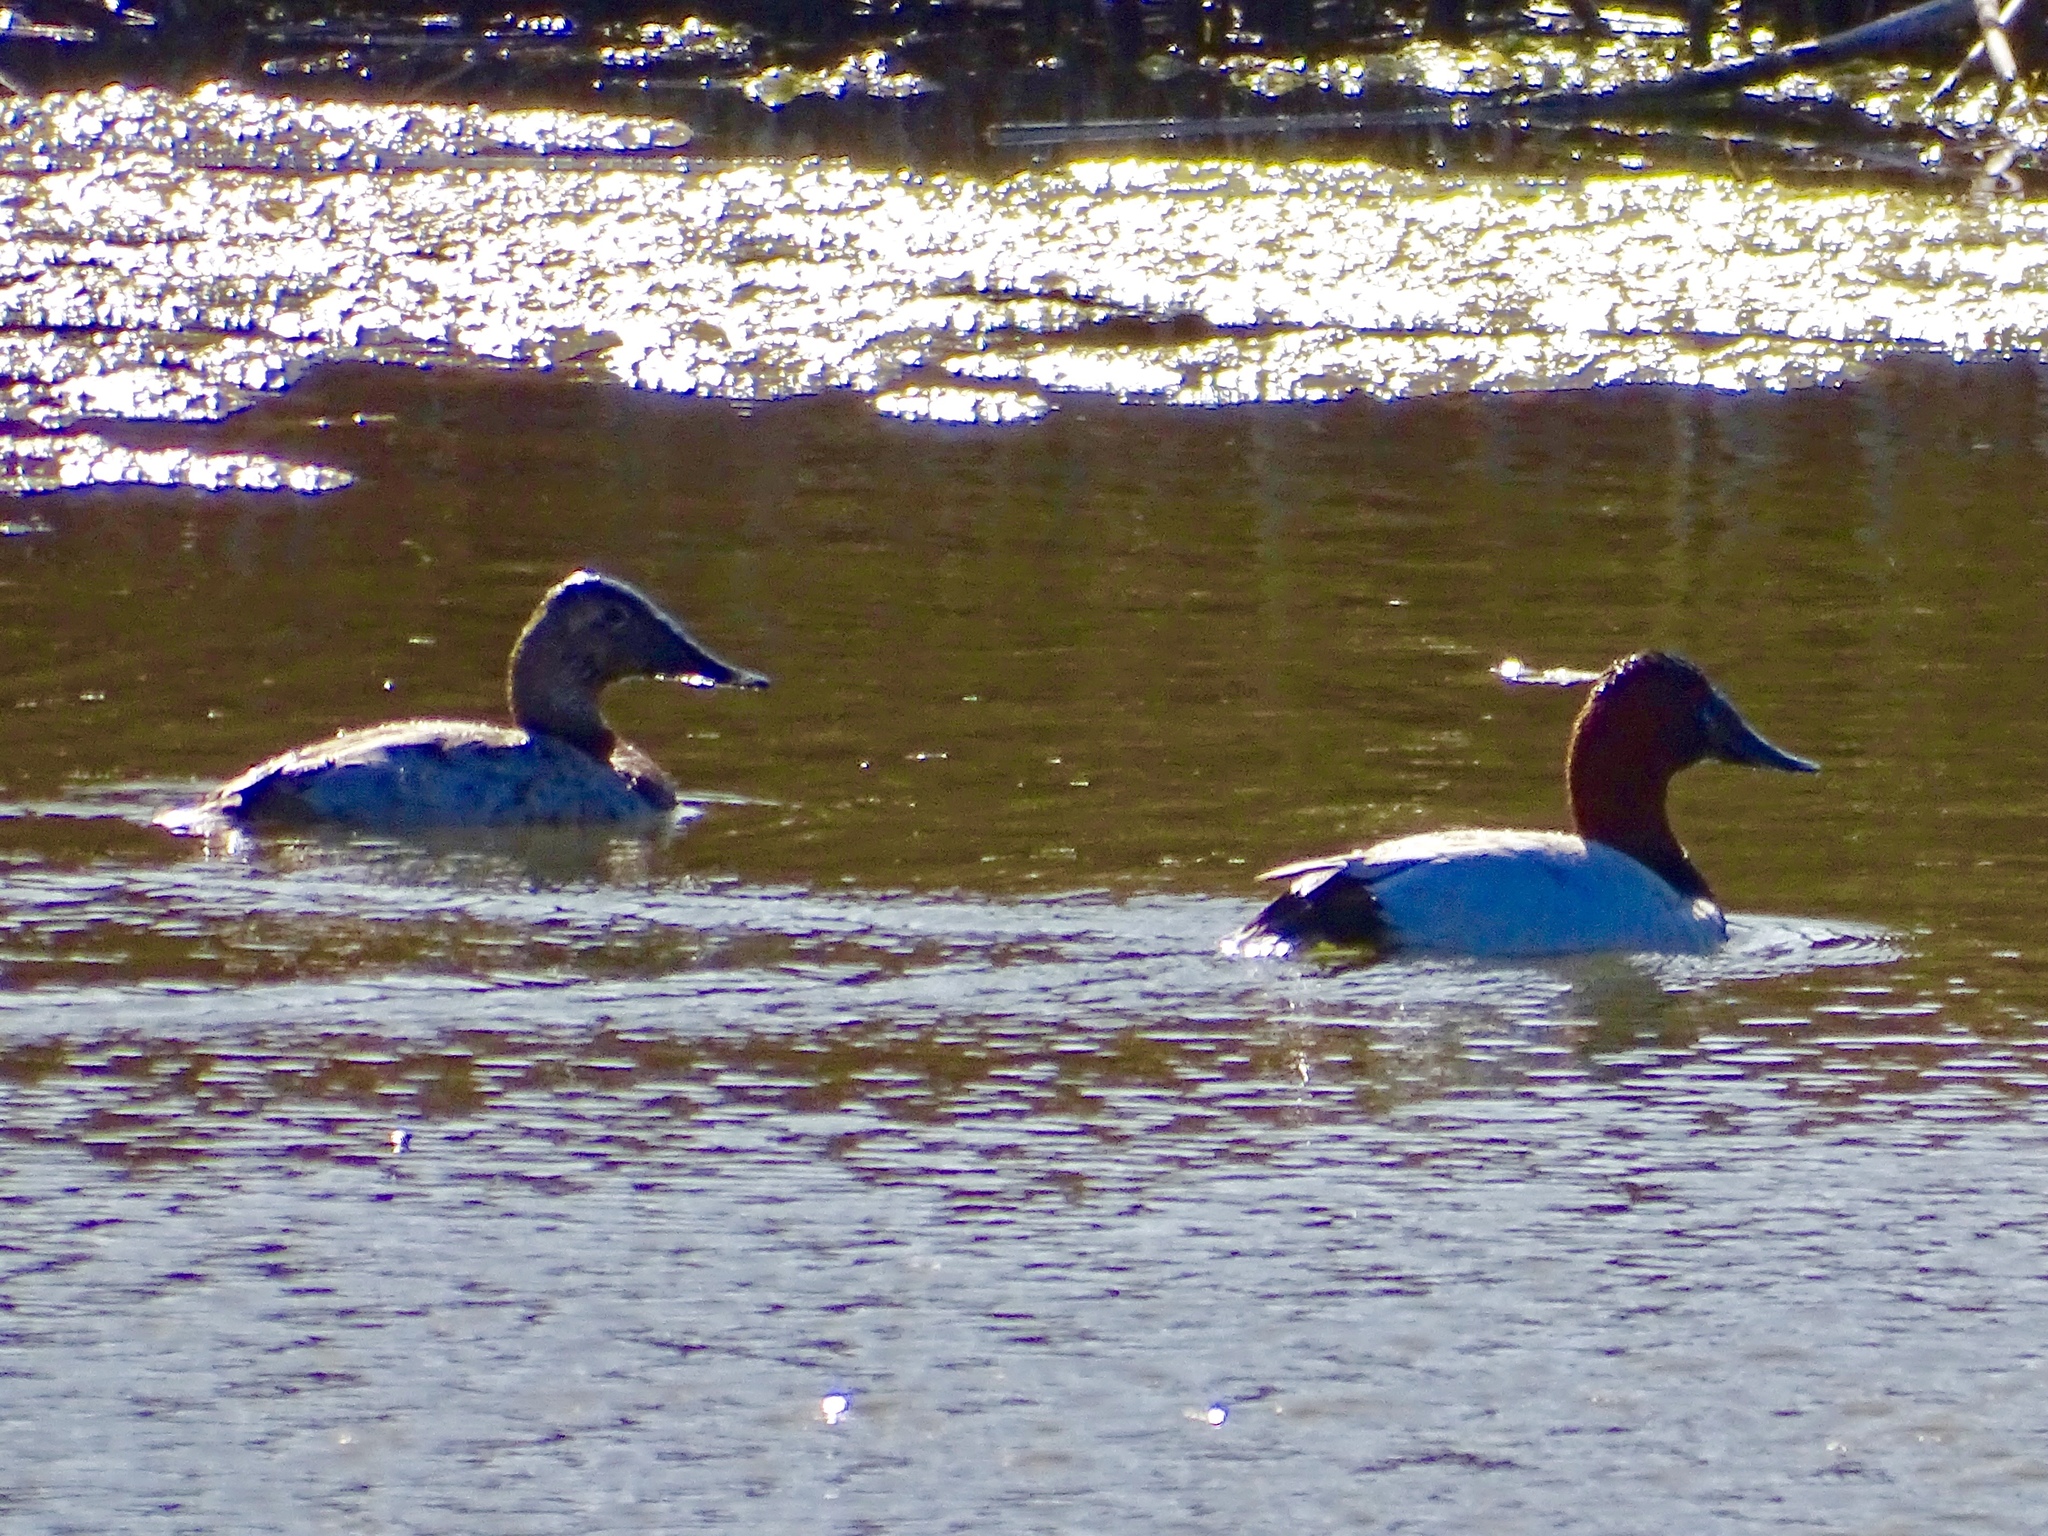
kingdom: Animalia
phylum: Chordata
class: Aves
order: Anseriformes
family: Anatidae
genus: Aythya
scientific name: Aythya valisineria
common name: Canvasback
